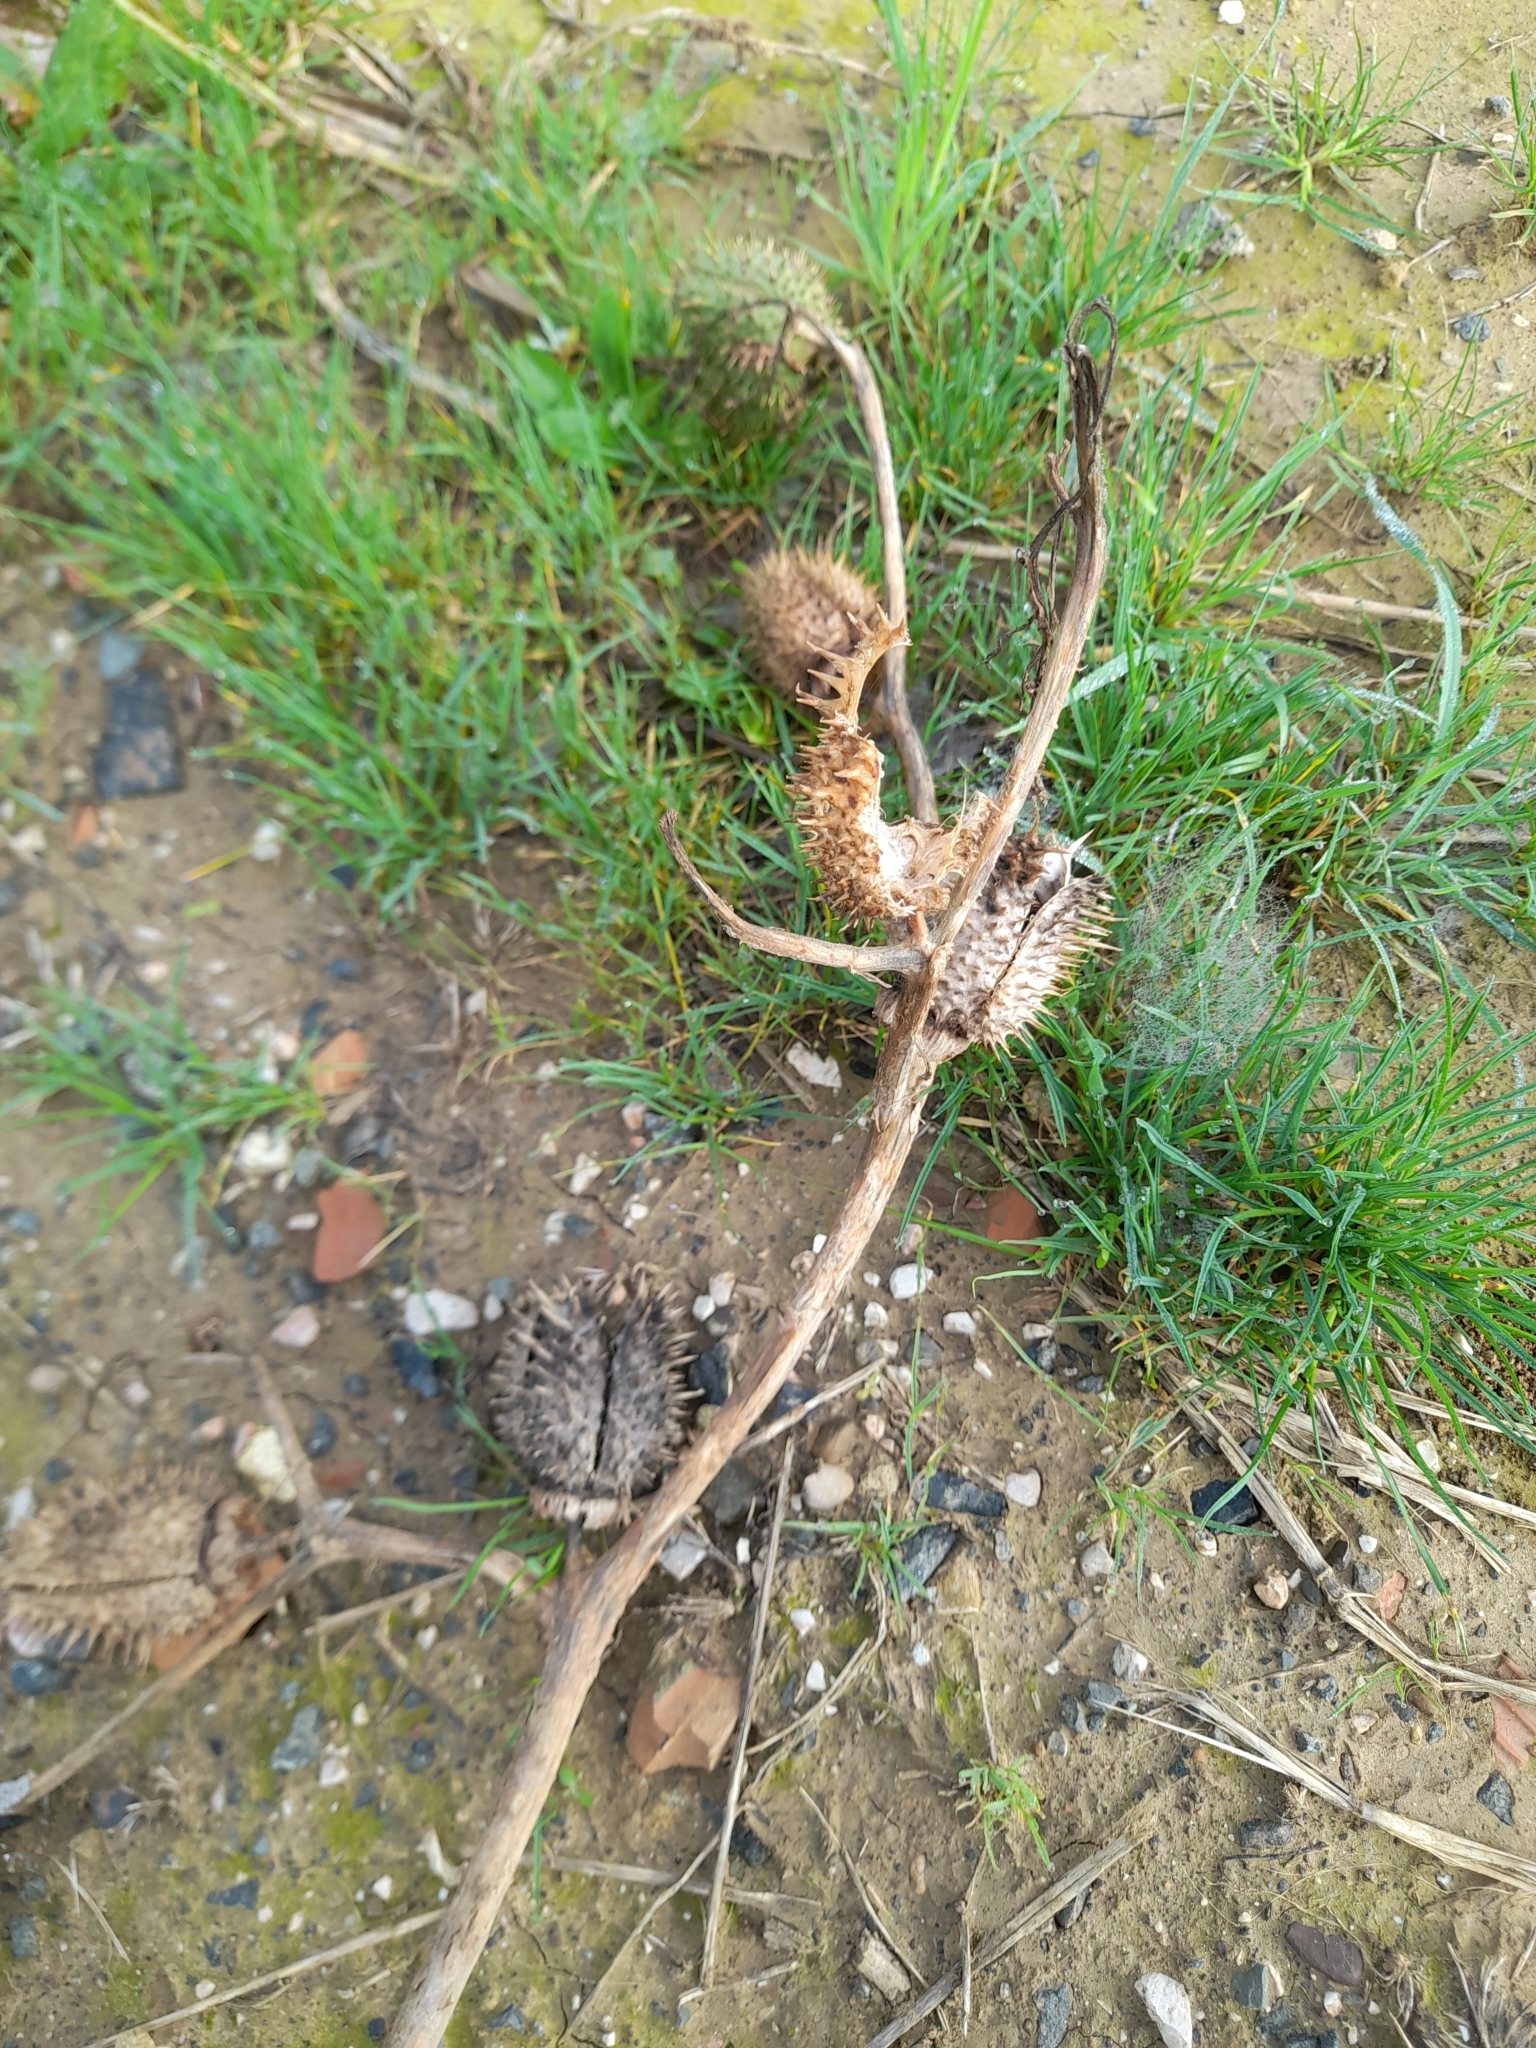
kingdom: Plantae
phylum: Tracheophyta
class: Magnoliopsida
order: Solanales
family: Solanaceae
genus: Datura
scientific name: Datura stramonium
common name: Thorn-apple
